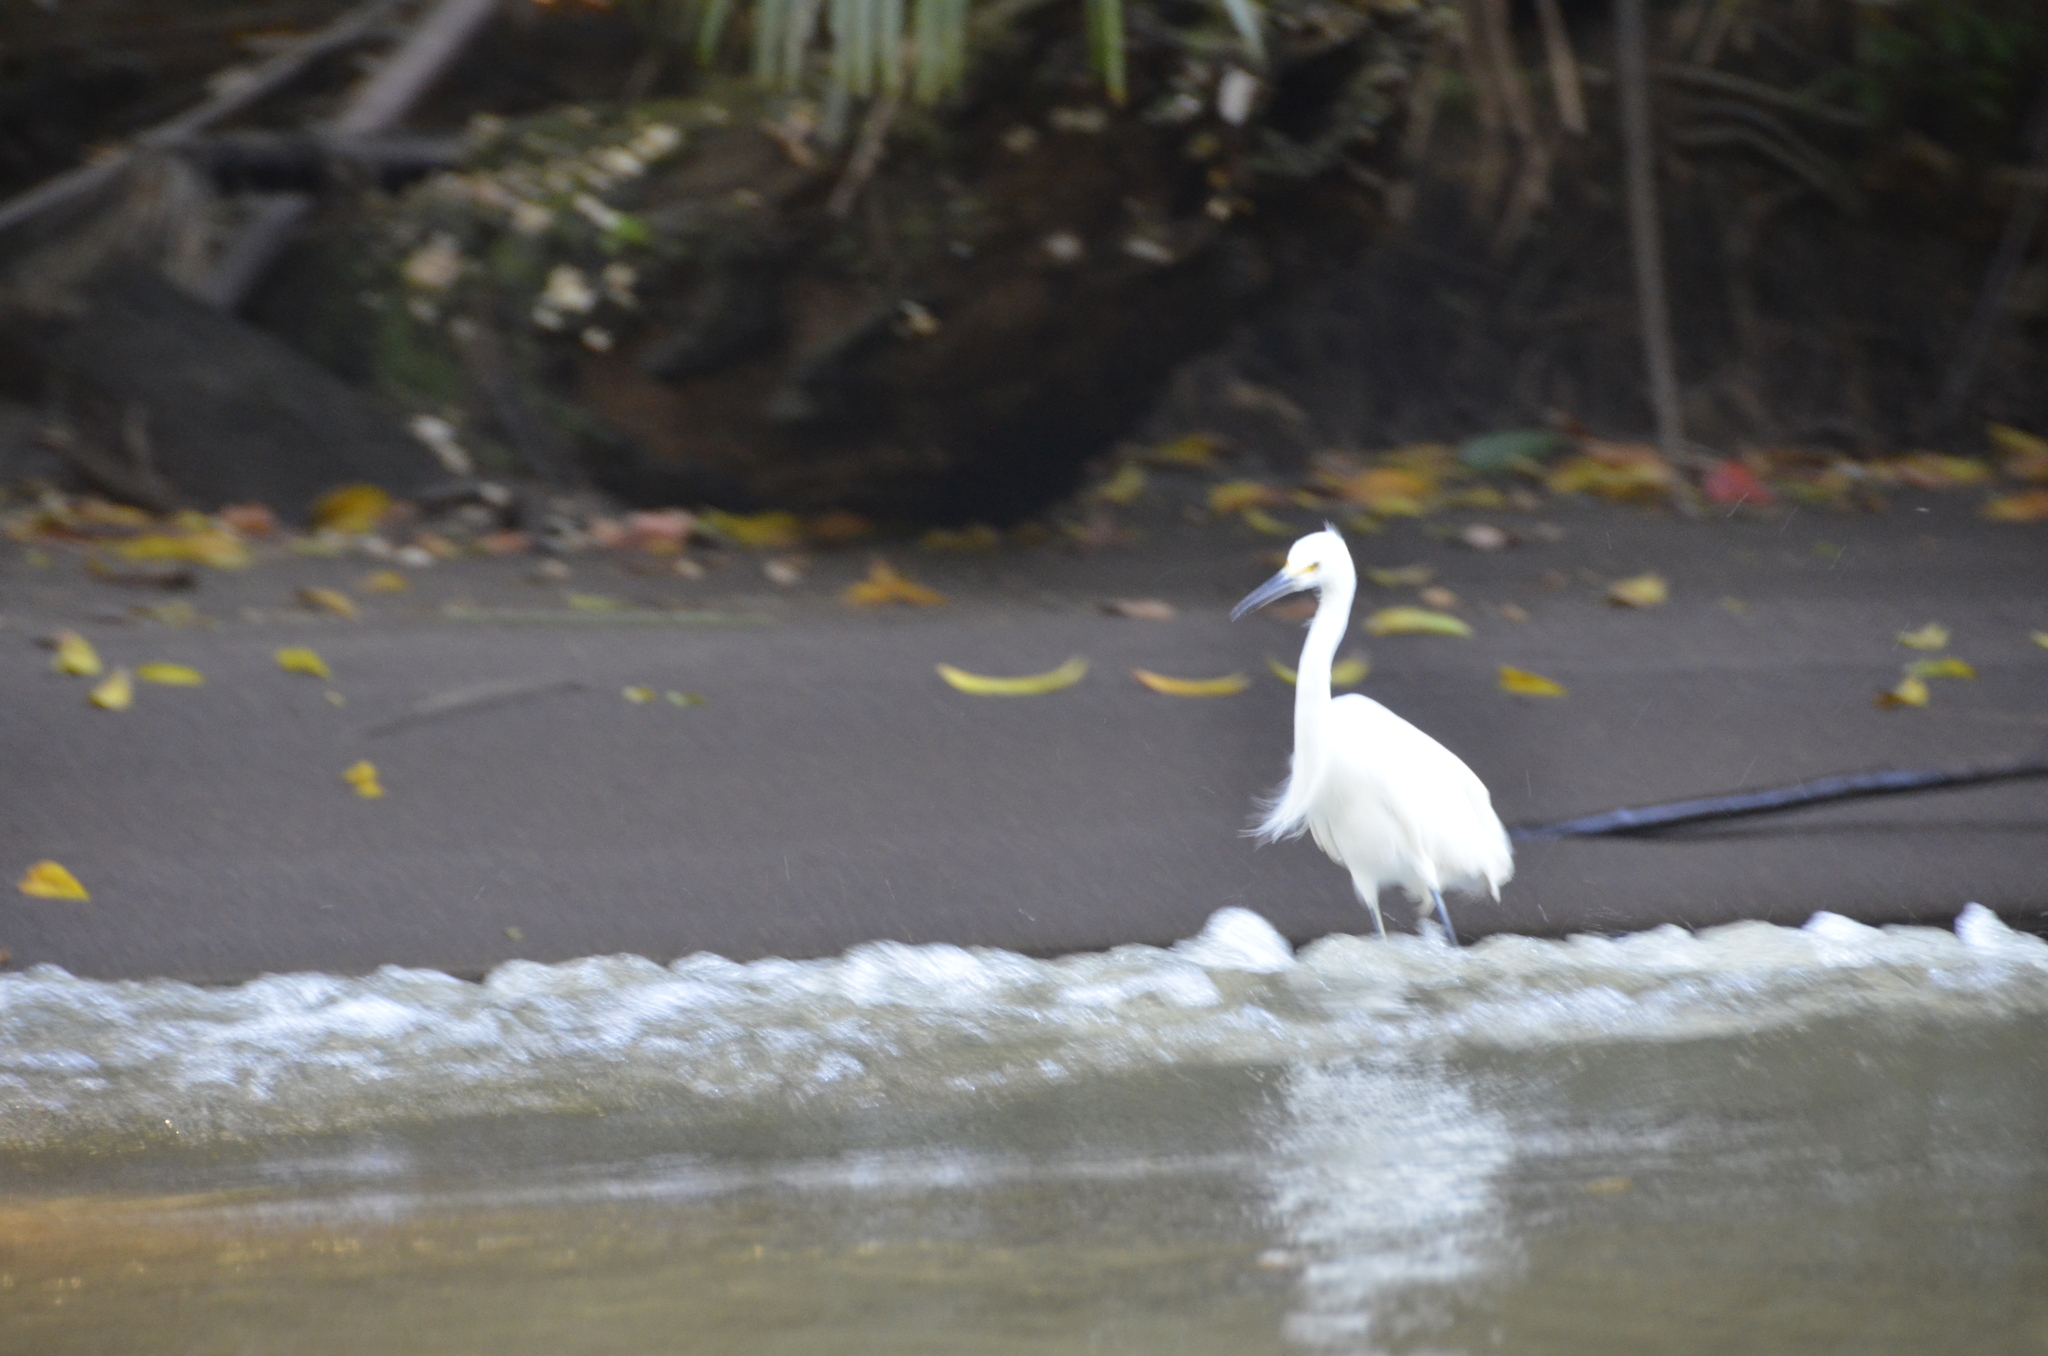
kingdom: Animalia
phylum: Chordata
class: Aves
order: Pelecaniformes
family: Ardeidae
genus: Egretta
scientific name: Egretta thula
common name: Snowy egret
